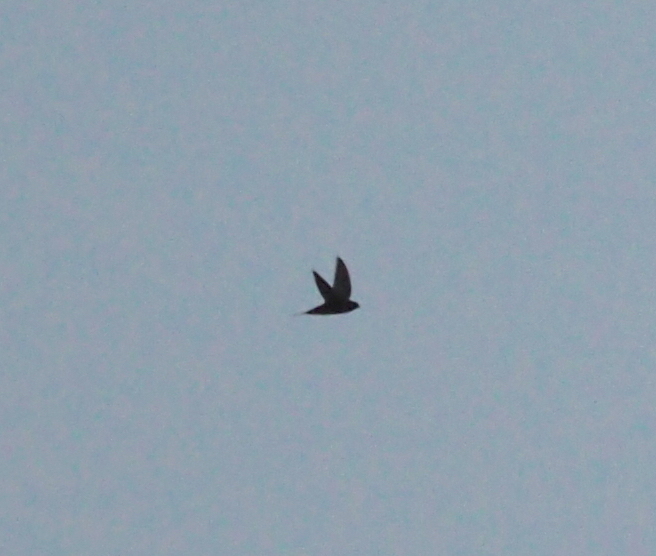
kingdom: Animalia
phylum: Chordata
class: Aves
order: Apodiformes
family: Apodidae
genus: Apus
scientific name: Apus apus
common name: Common swift
